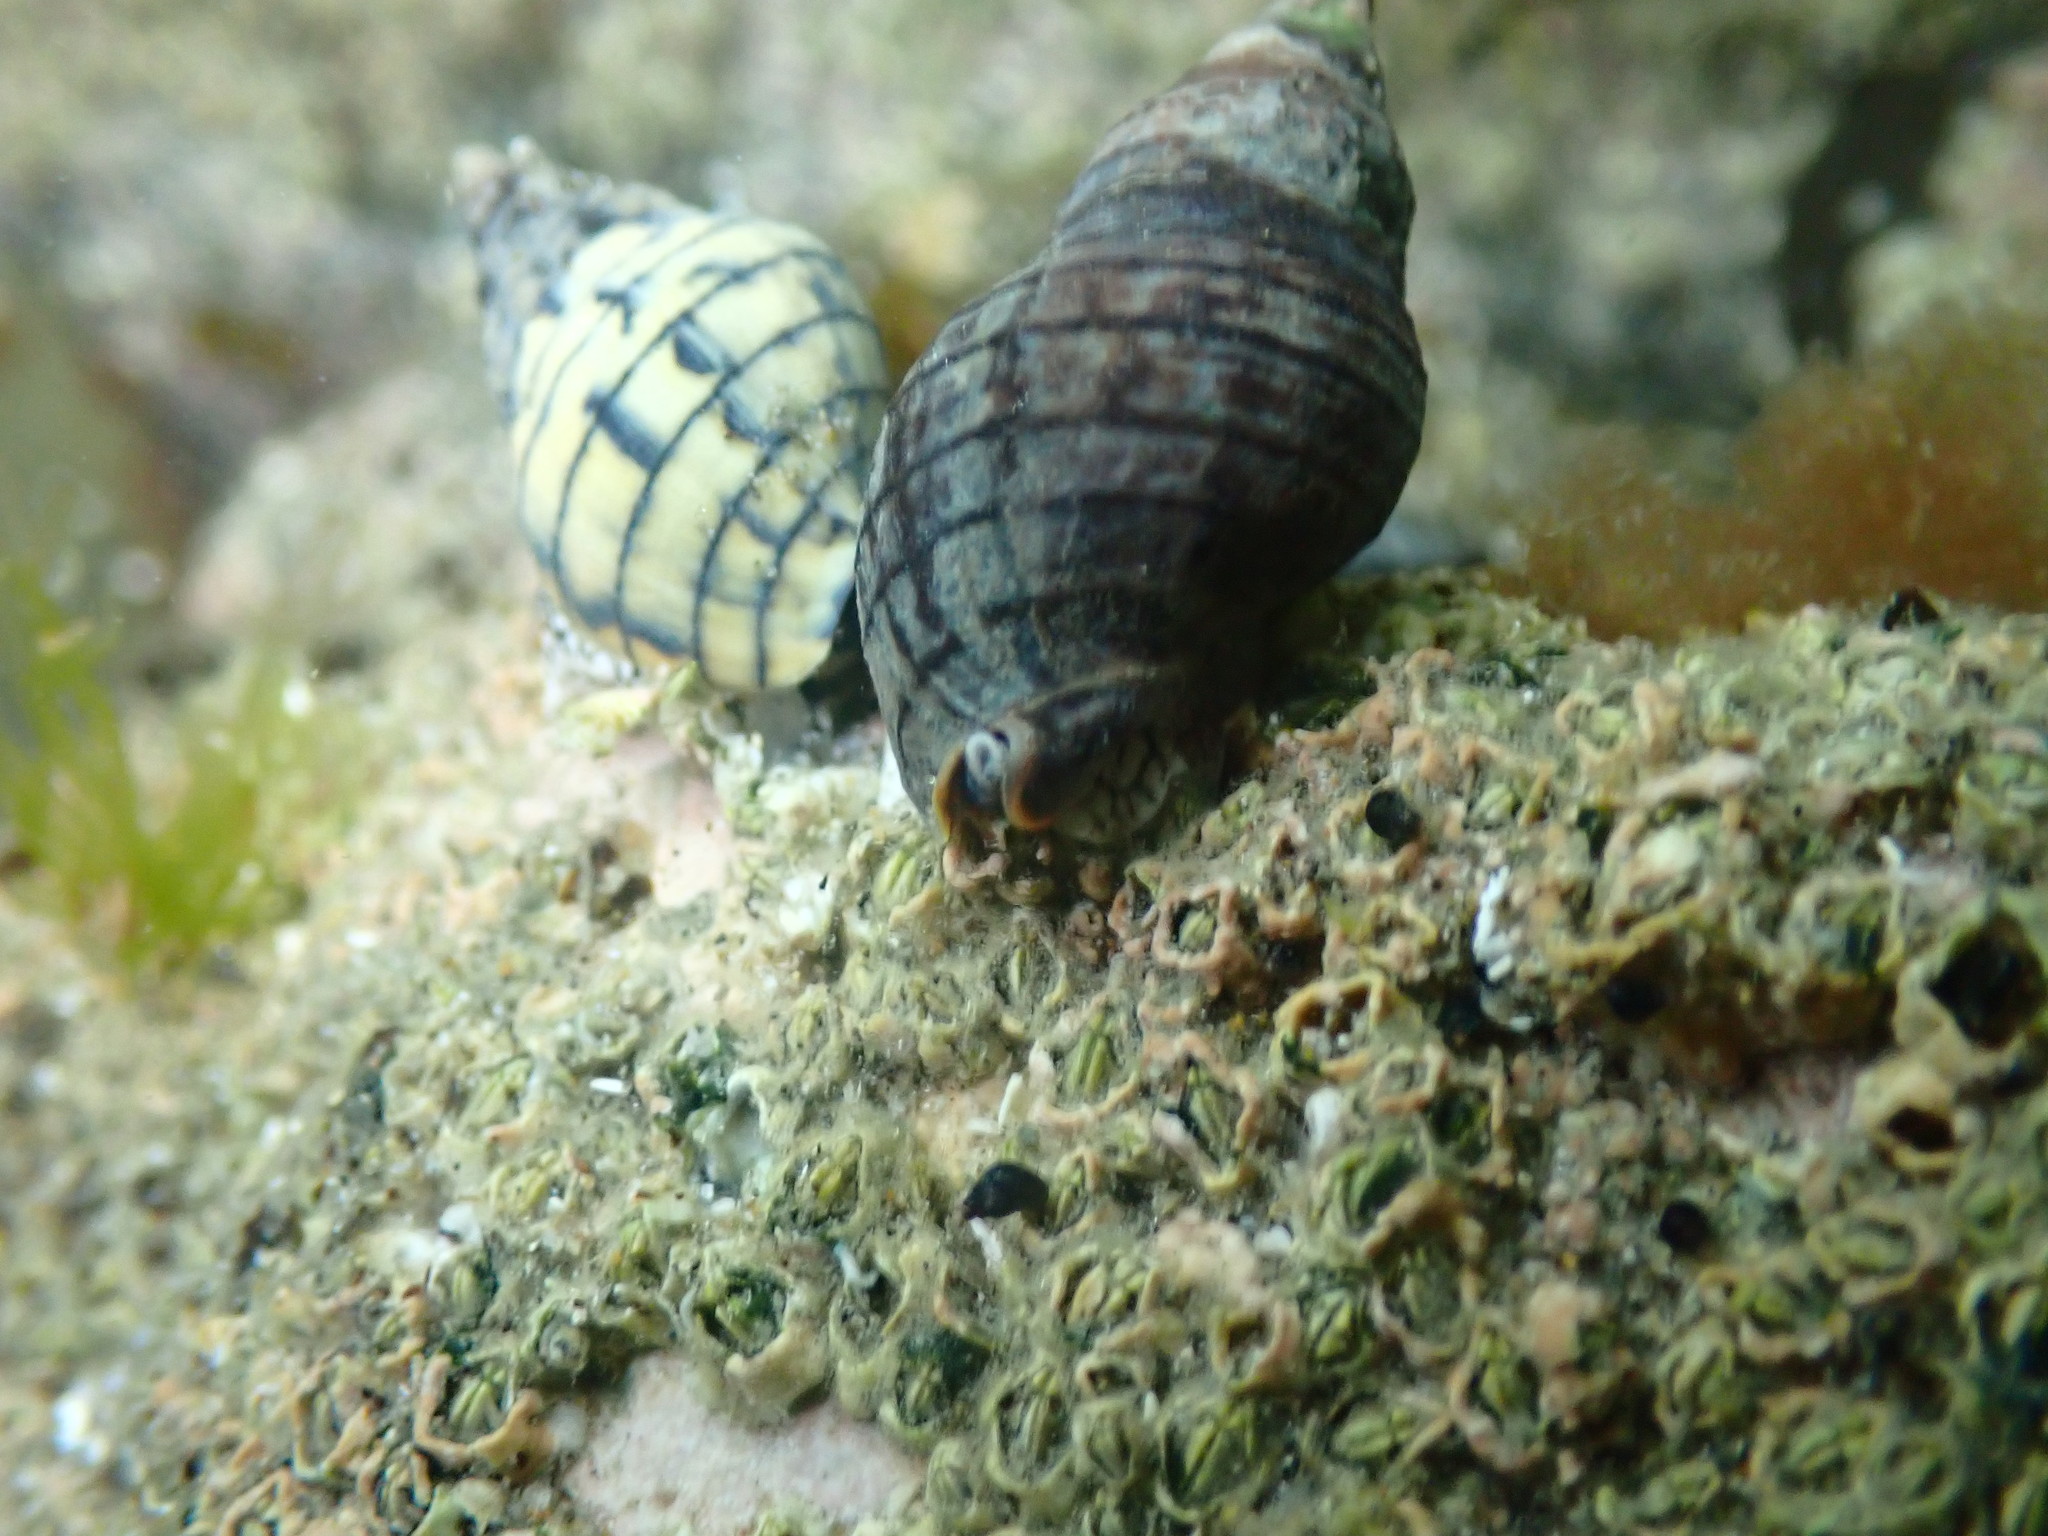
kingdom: Animalia
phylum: Mollusca
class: Gastropoda
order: Neogastropoda
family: Cominellidae
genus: Cominella
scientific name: Cominella virgata
